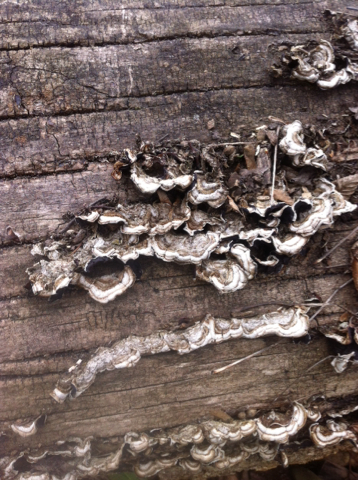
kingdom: Fungi
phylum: Basidiomycota
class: Agaricomycetes
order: Auriculariales
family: Auriculariaceae
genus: Auricularia
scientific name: Auricularia mesenterica
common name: Tripe fungus
